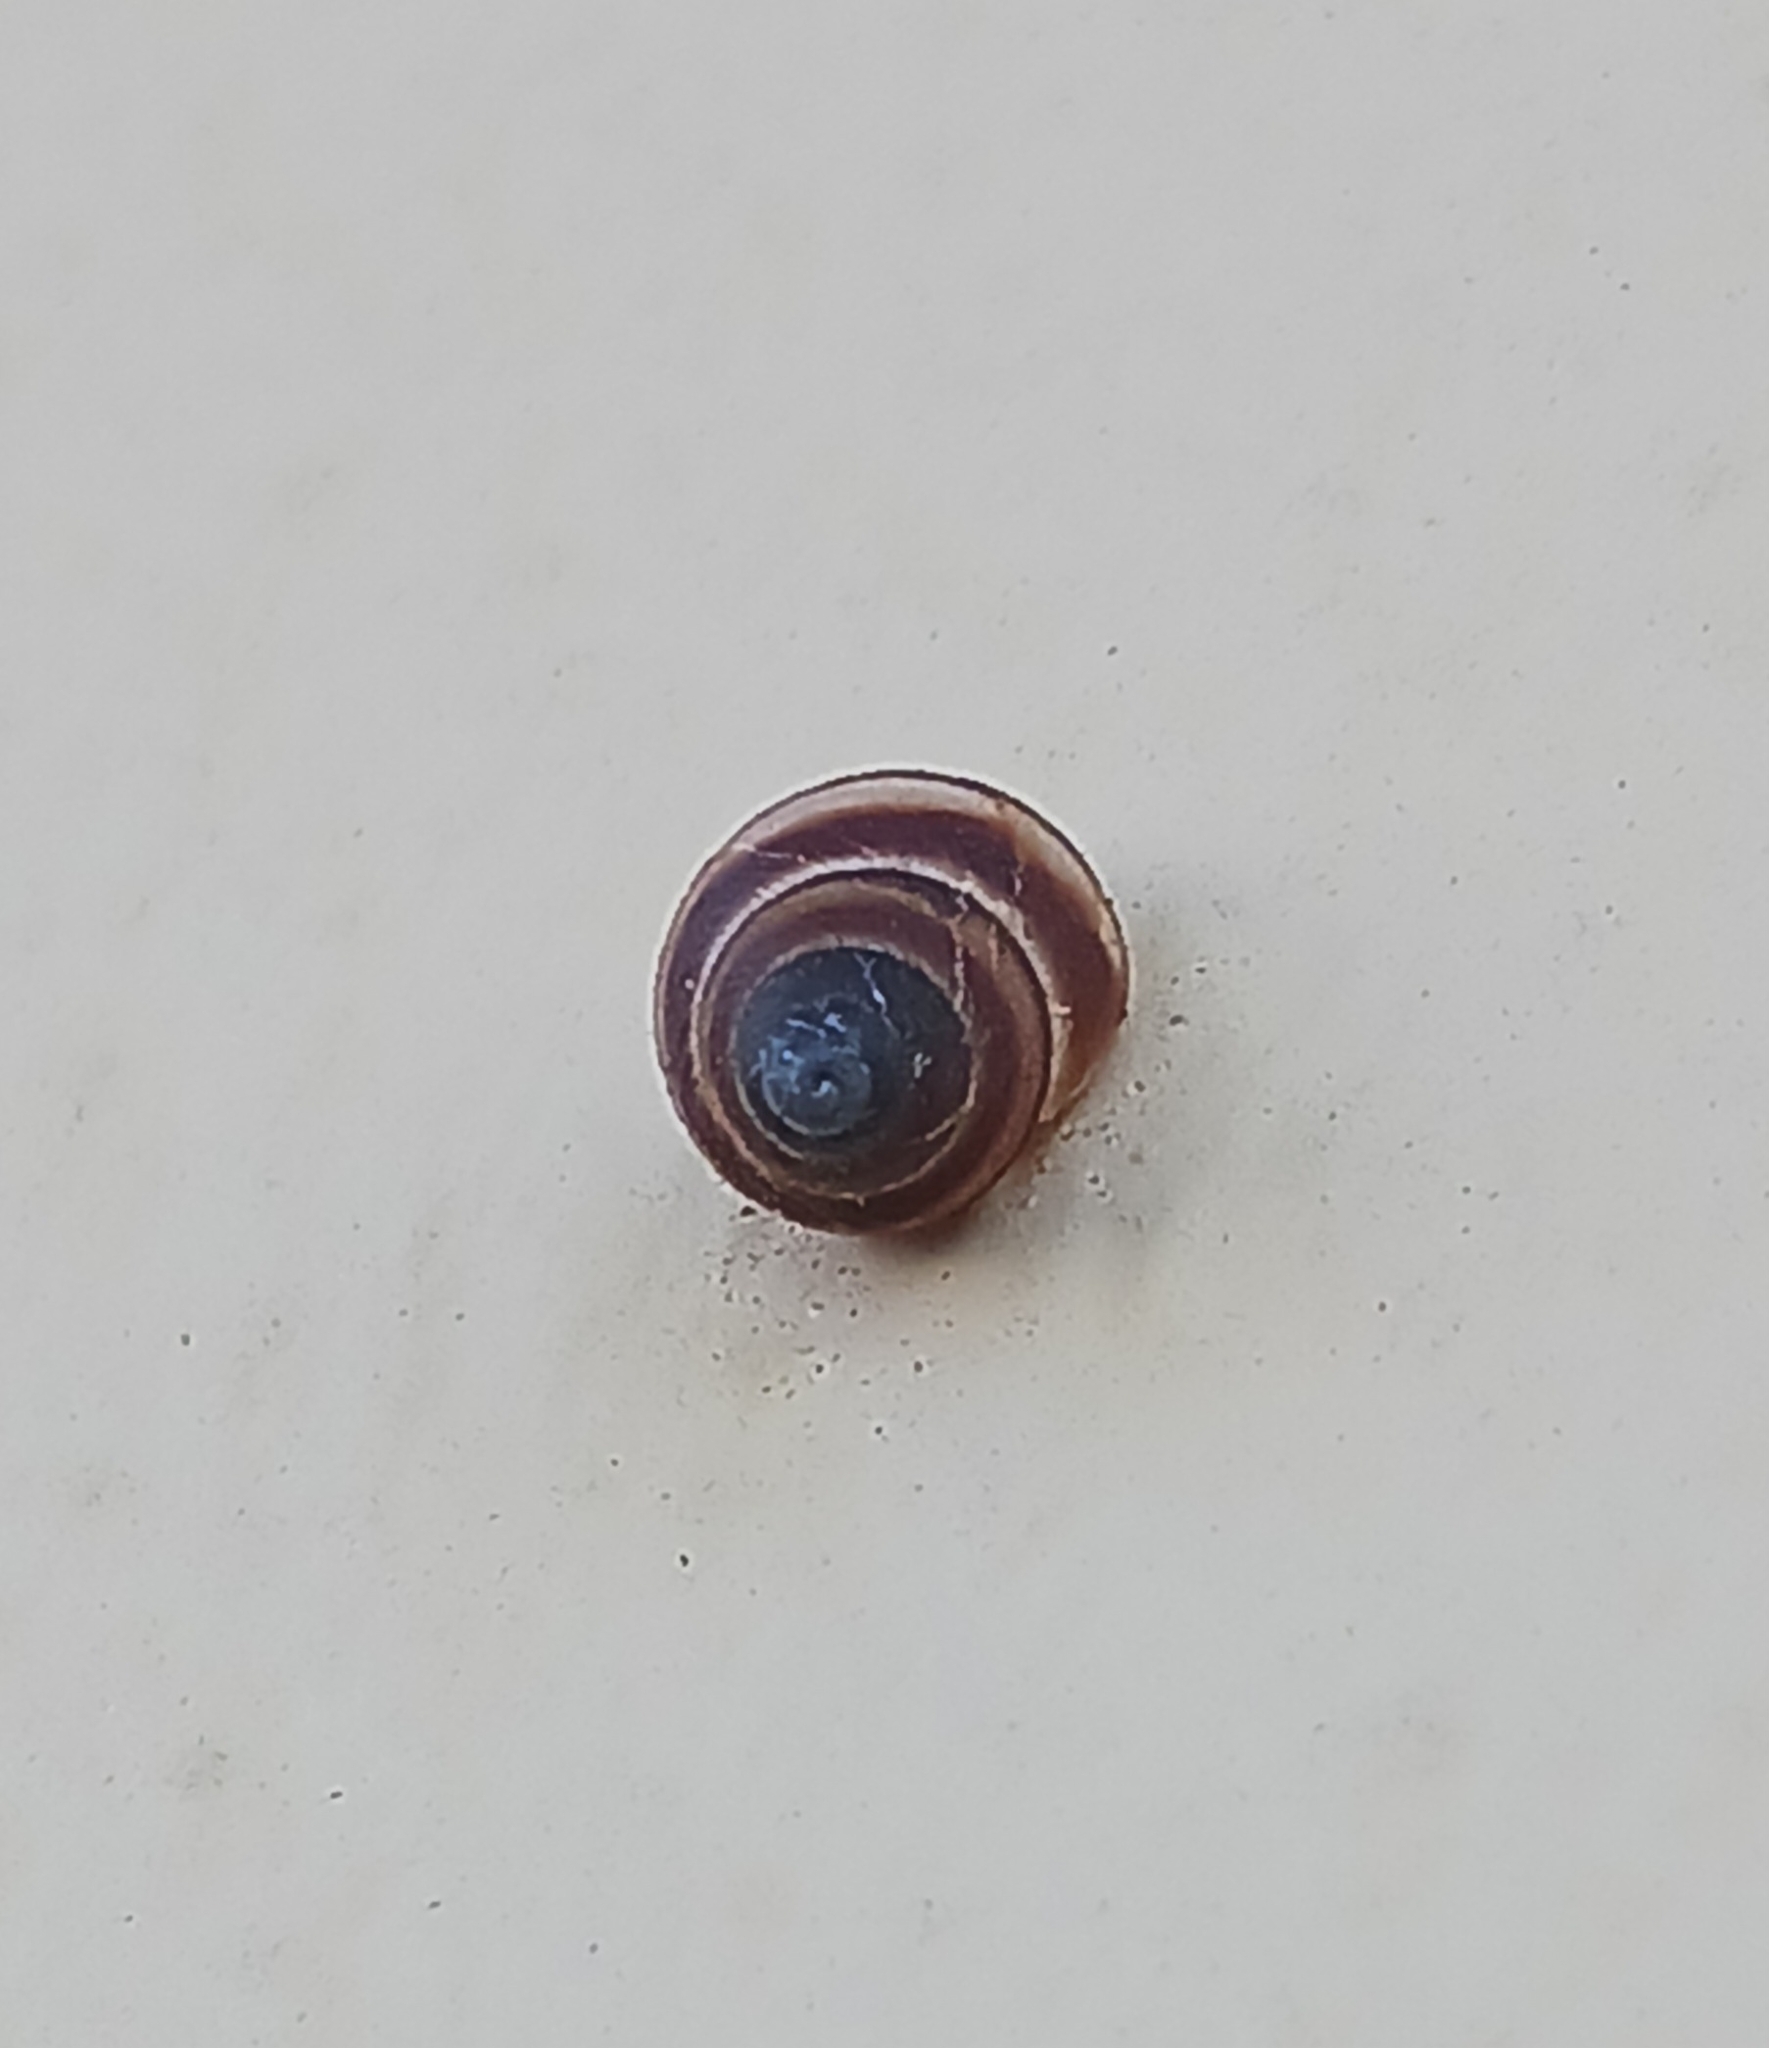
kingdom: Animalia
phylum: Mollusca
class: Gastropoda
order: Stylommatophora
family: Bulimulidae
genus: Bulimulus
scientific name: Bulimulus guadalupensis
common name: West indian bulimulus
